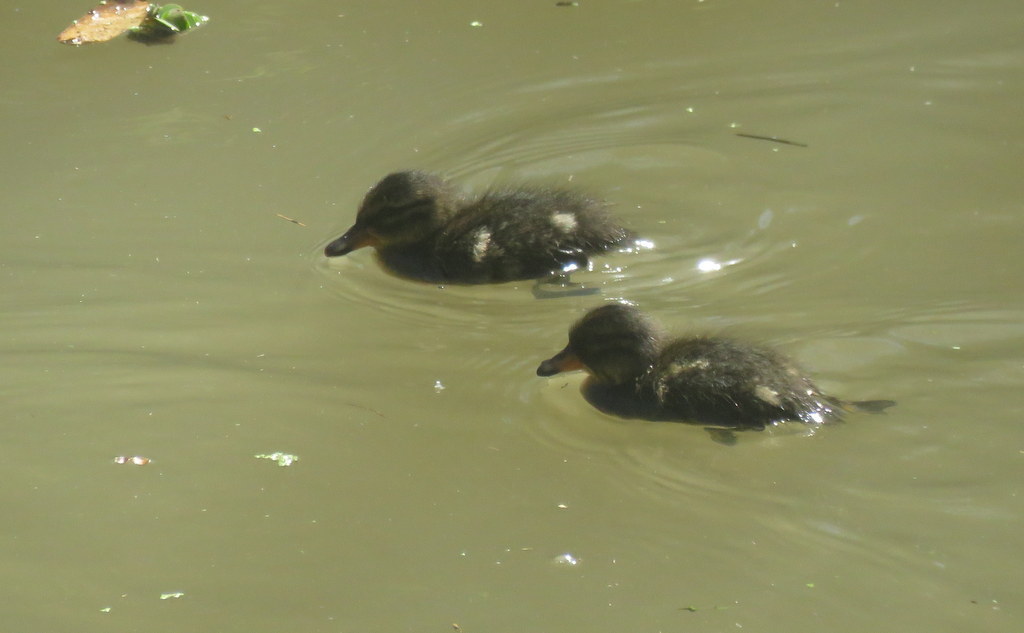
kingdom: Animalia
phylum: Chordata
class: Aves
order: Anseriformes
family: Anatidae
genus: Anas
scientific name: Anas flavirostris
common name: Yellow-billed teal
